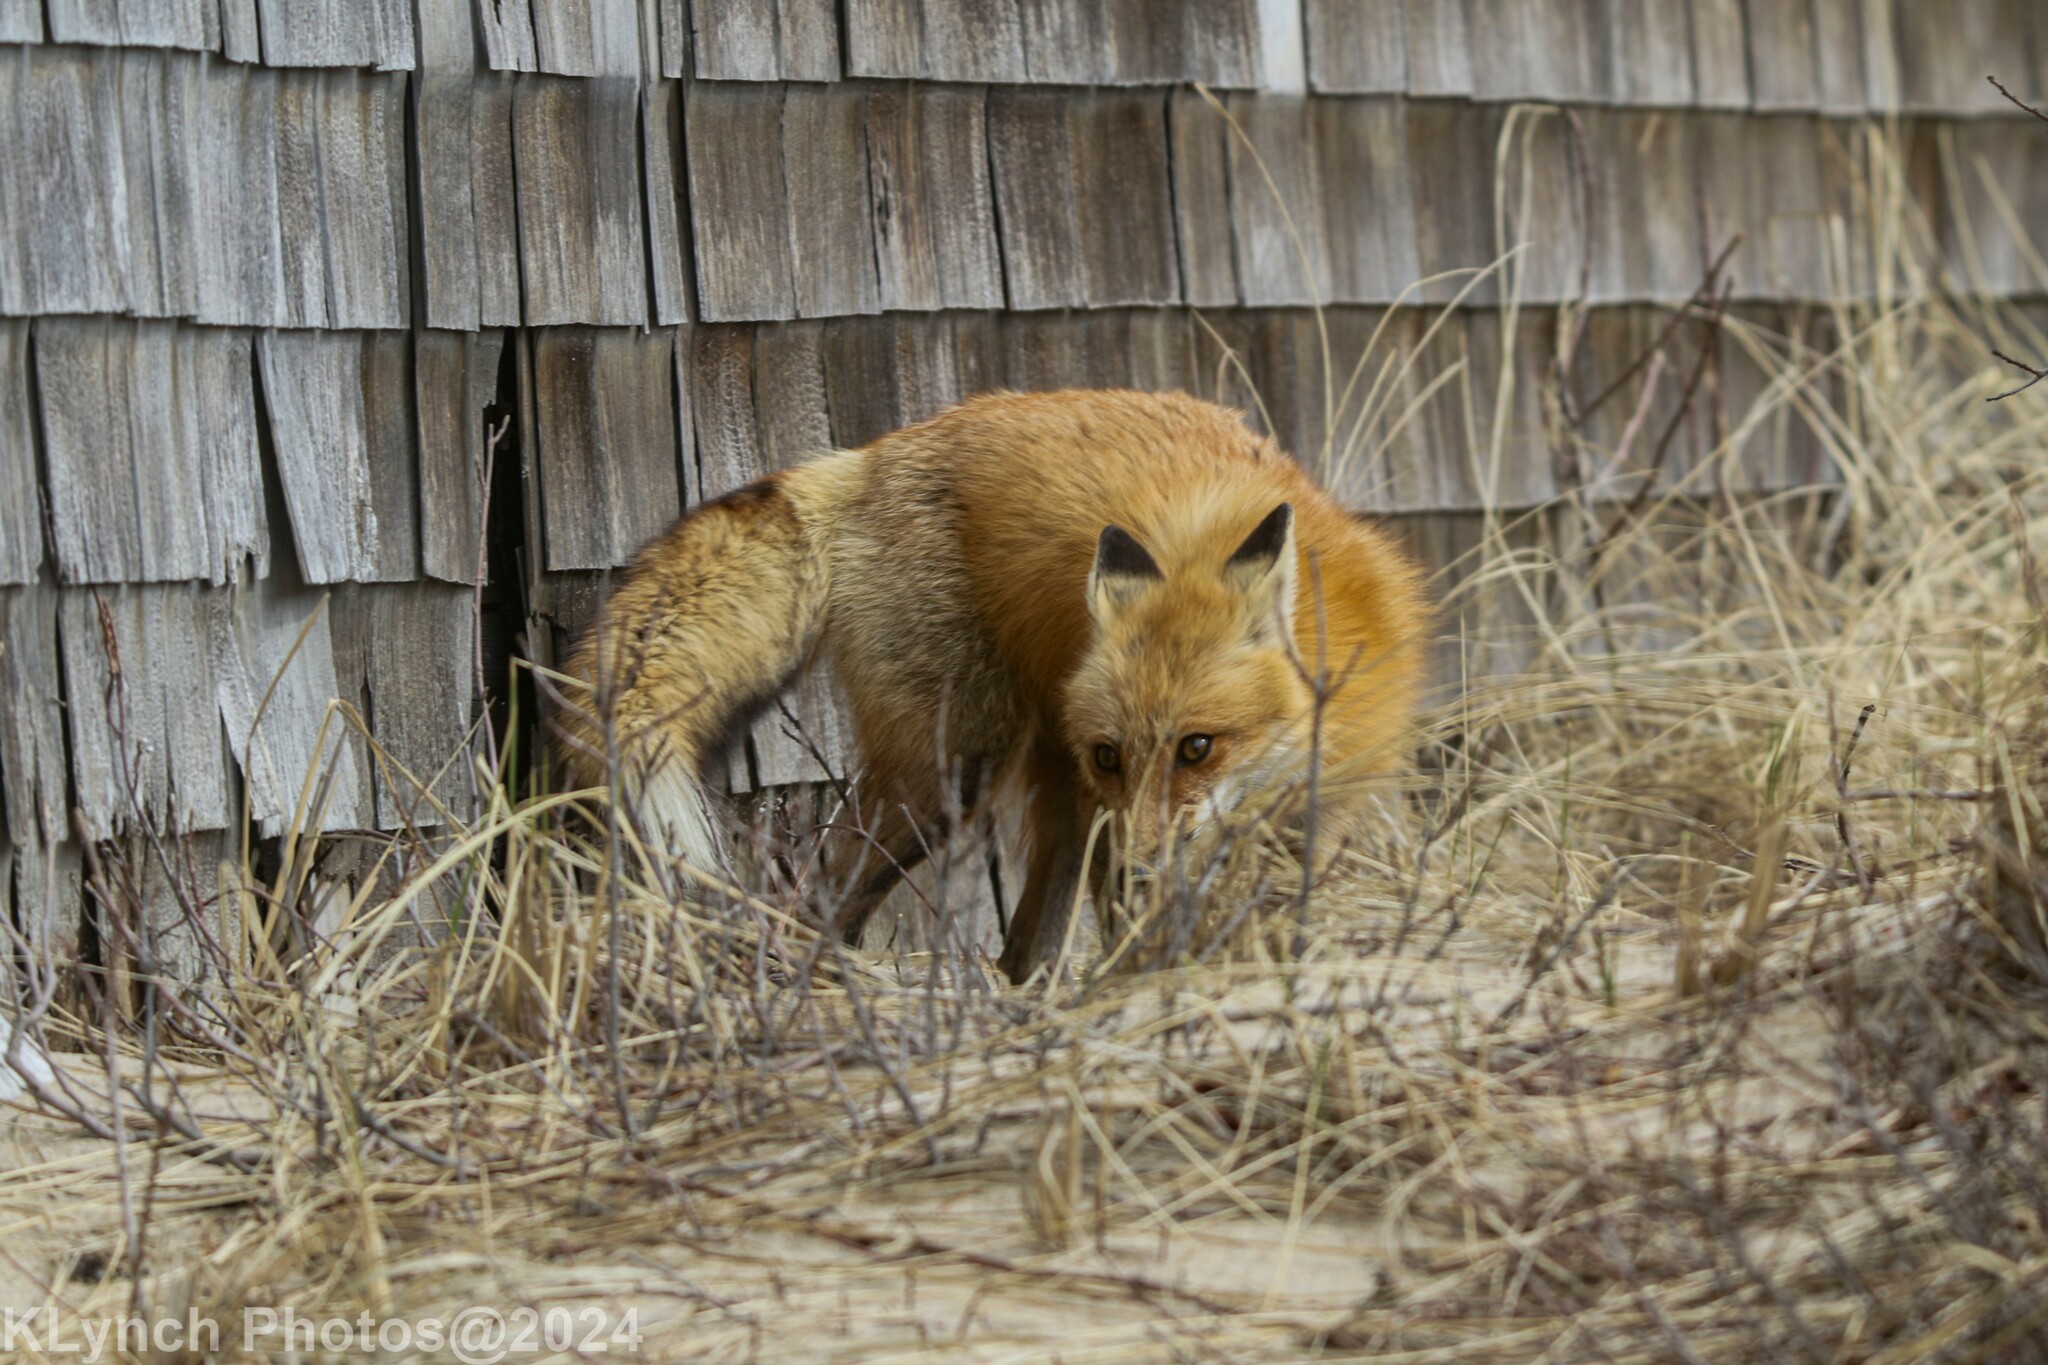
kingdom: Animalia
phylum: Chordata
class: Mammalia
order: Carnivora
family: Canidae
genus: Vulpes
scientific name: Vulpes vulpes
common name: Red fox
